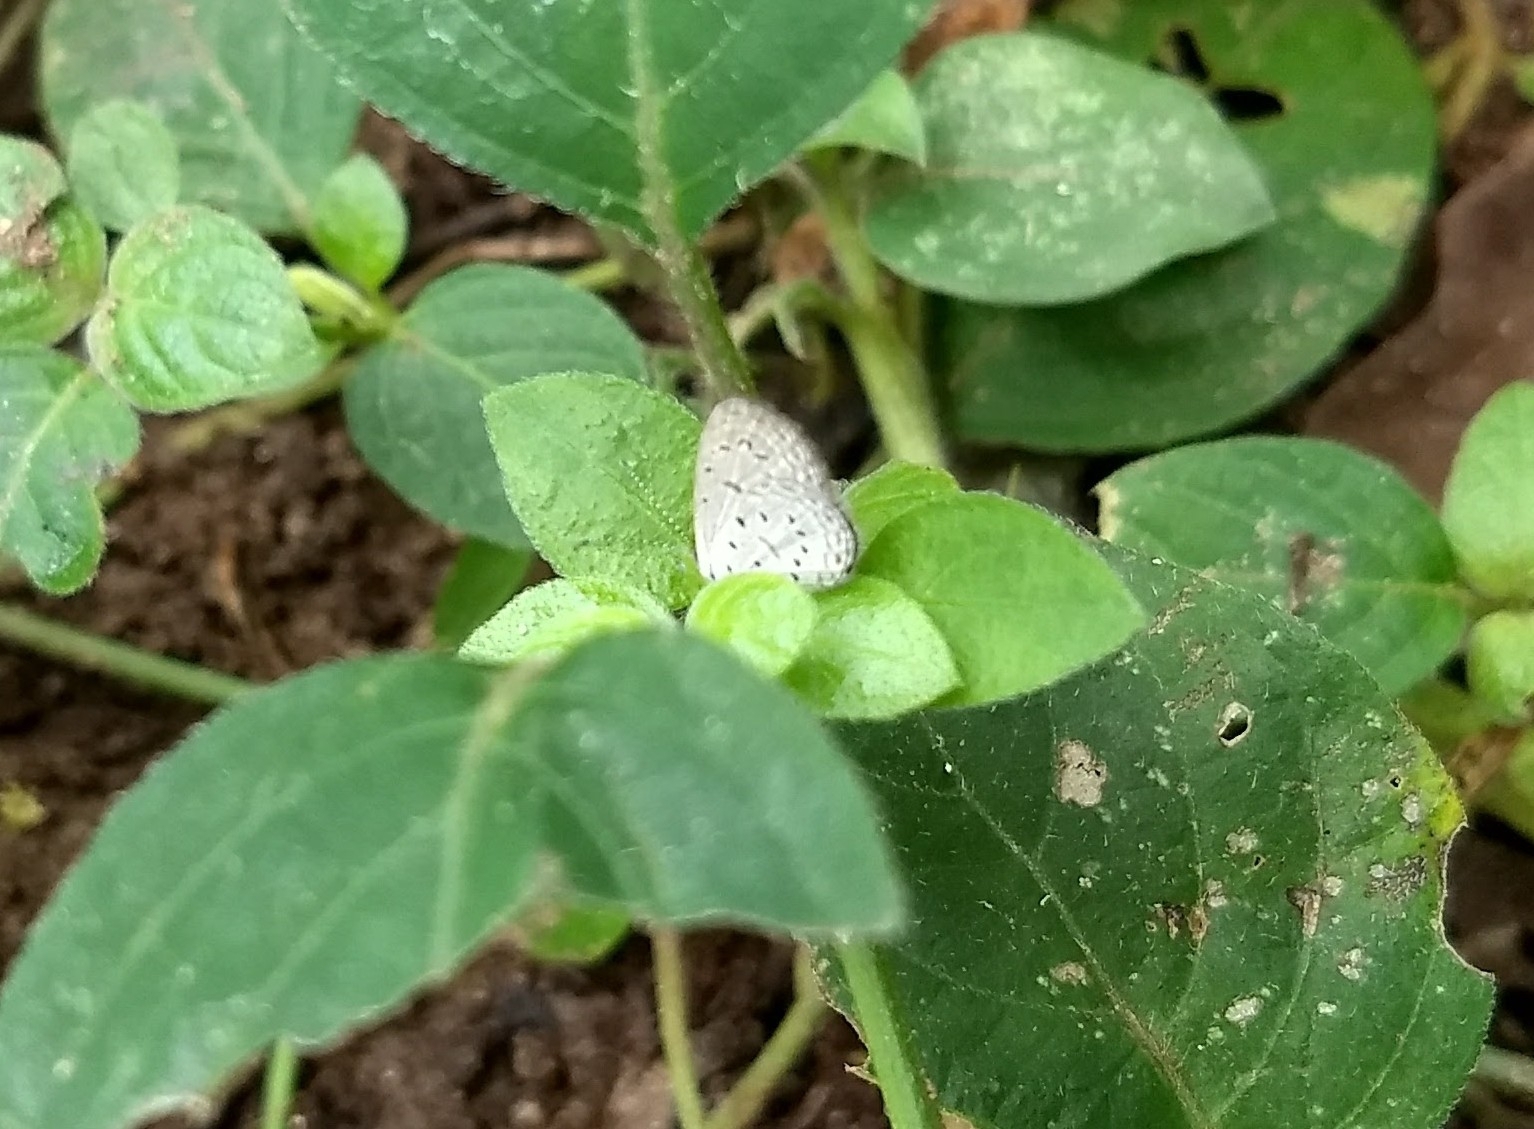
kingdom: Animalia
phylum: Arthropoda
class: Insecta
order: Lepidoptera
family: Lycaenidae
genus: Zizula
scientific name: Zizula hylax
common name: Gaika blue
